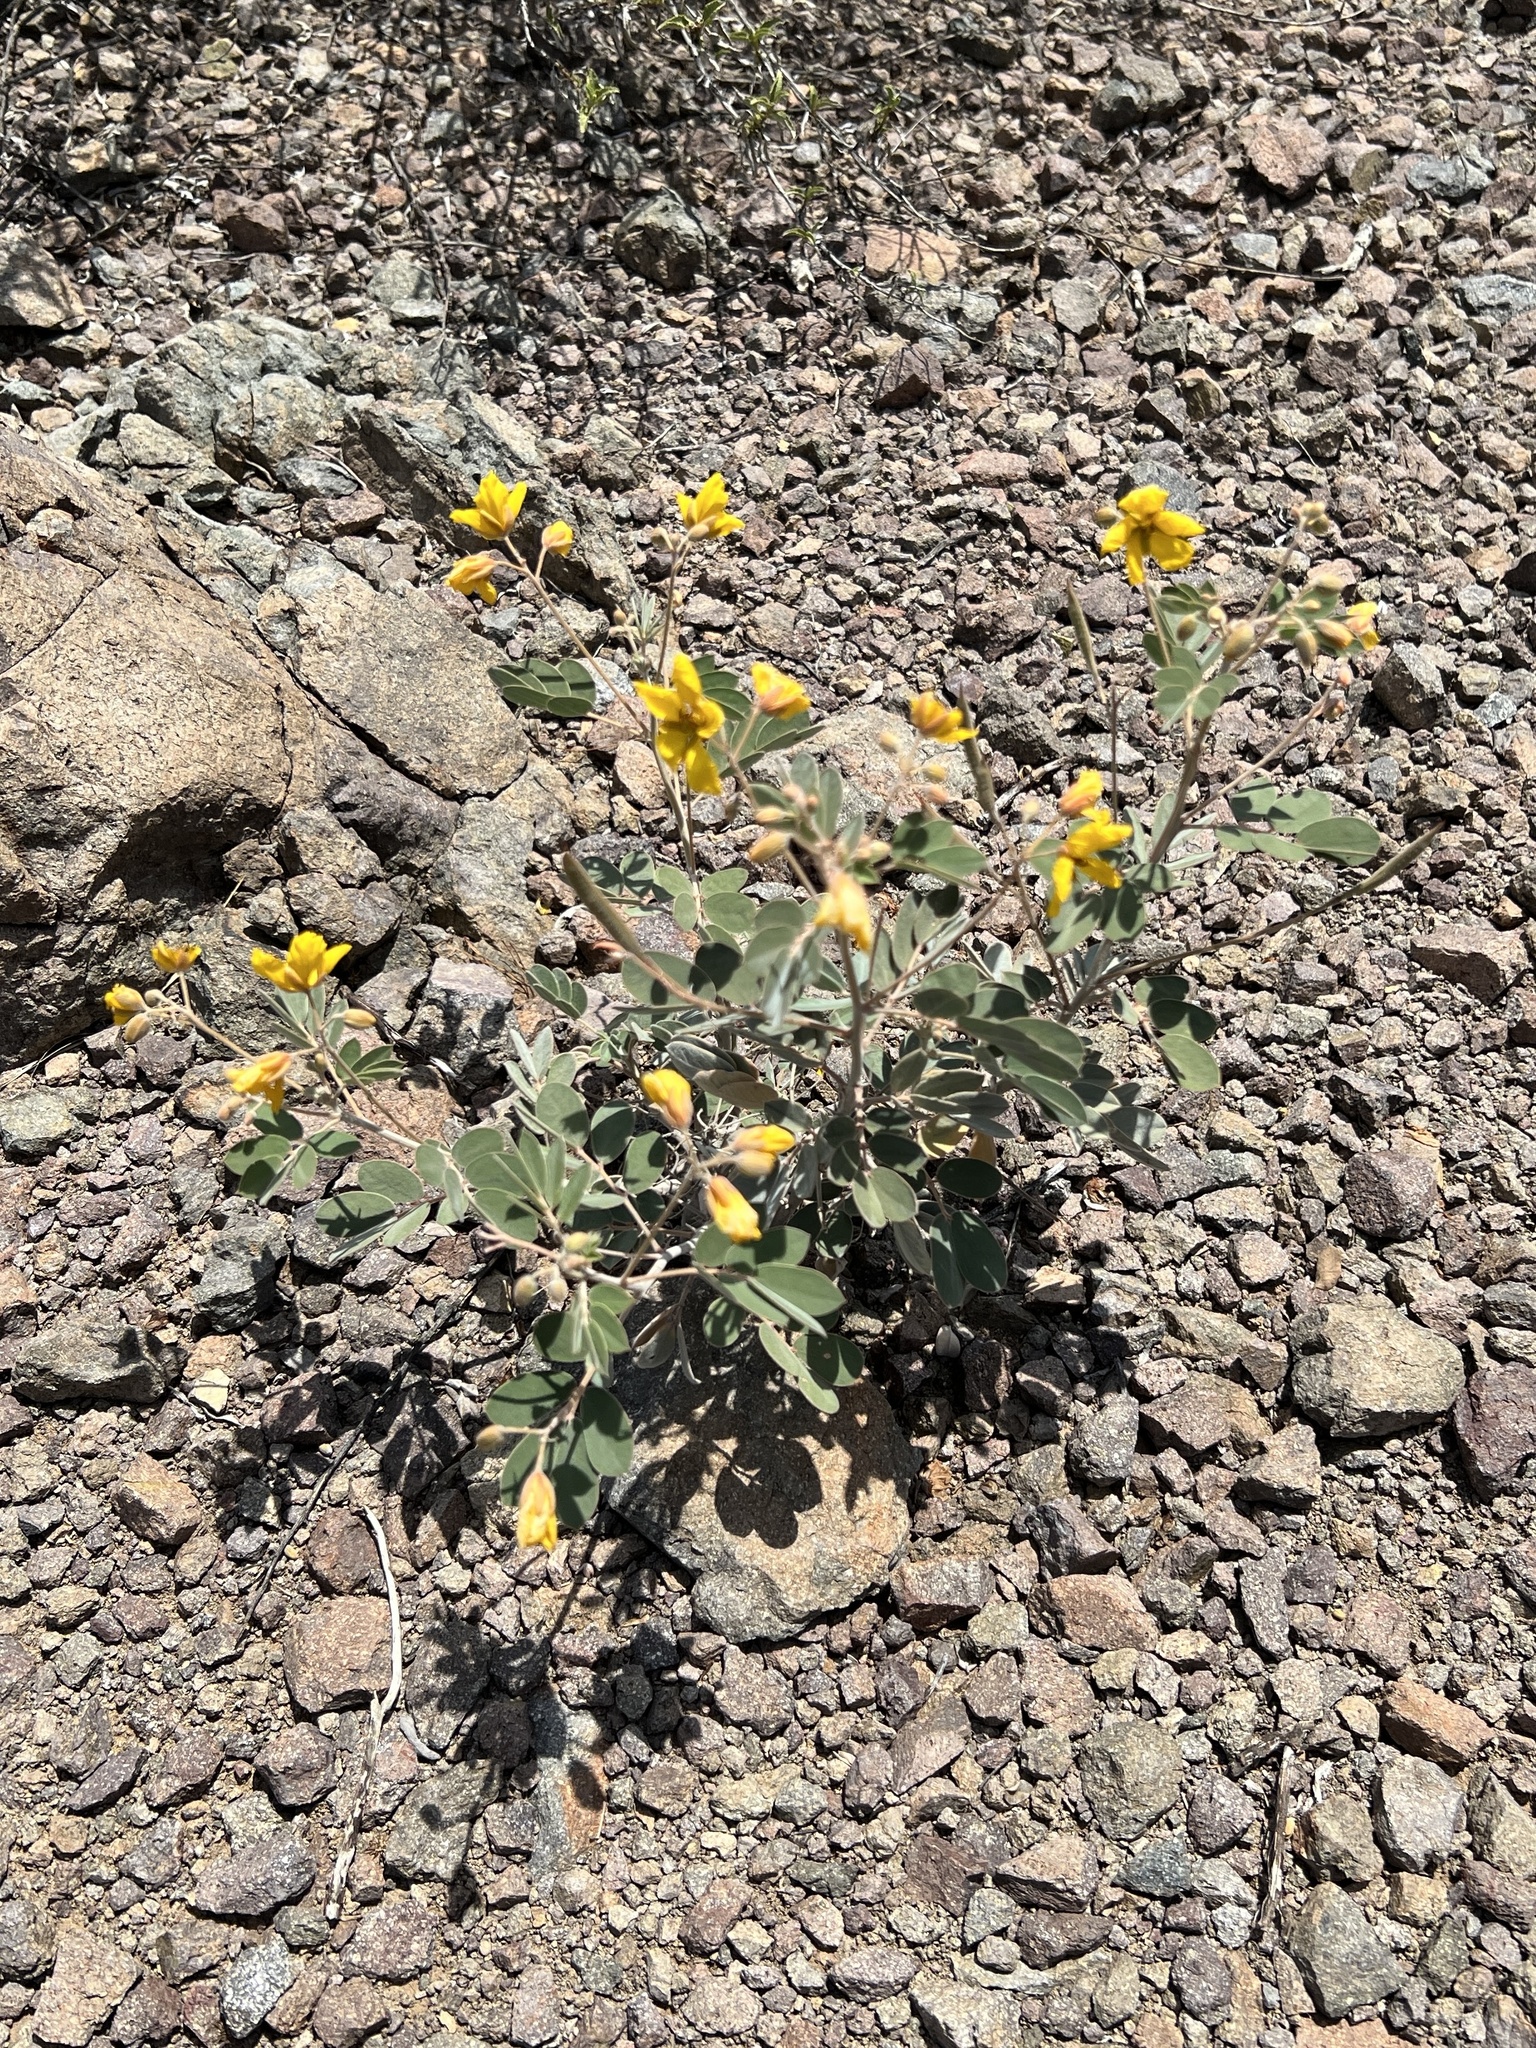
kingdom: Plantae
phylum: Tracheophyta
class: Magnoliopsida
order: Fabales
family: Fabaceae
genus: Senna
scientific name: Senna covesii
